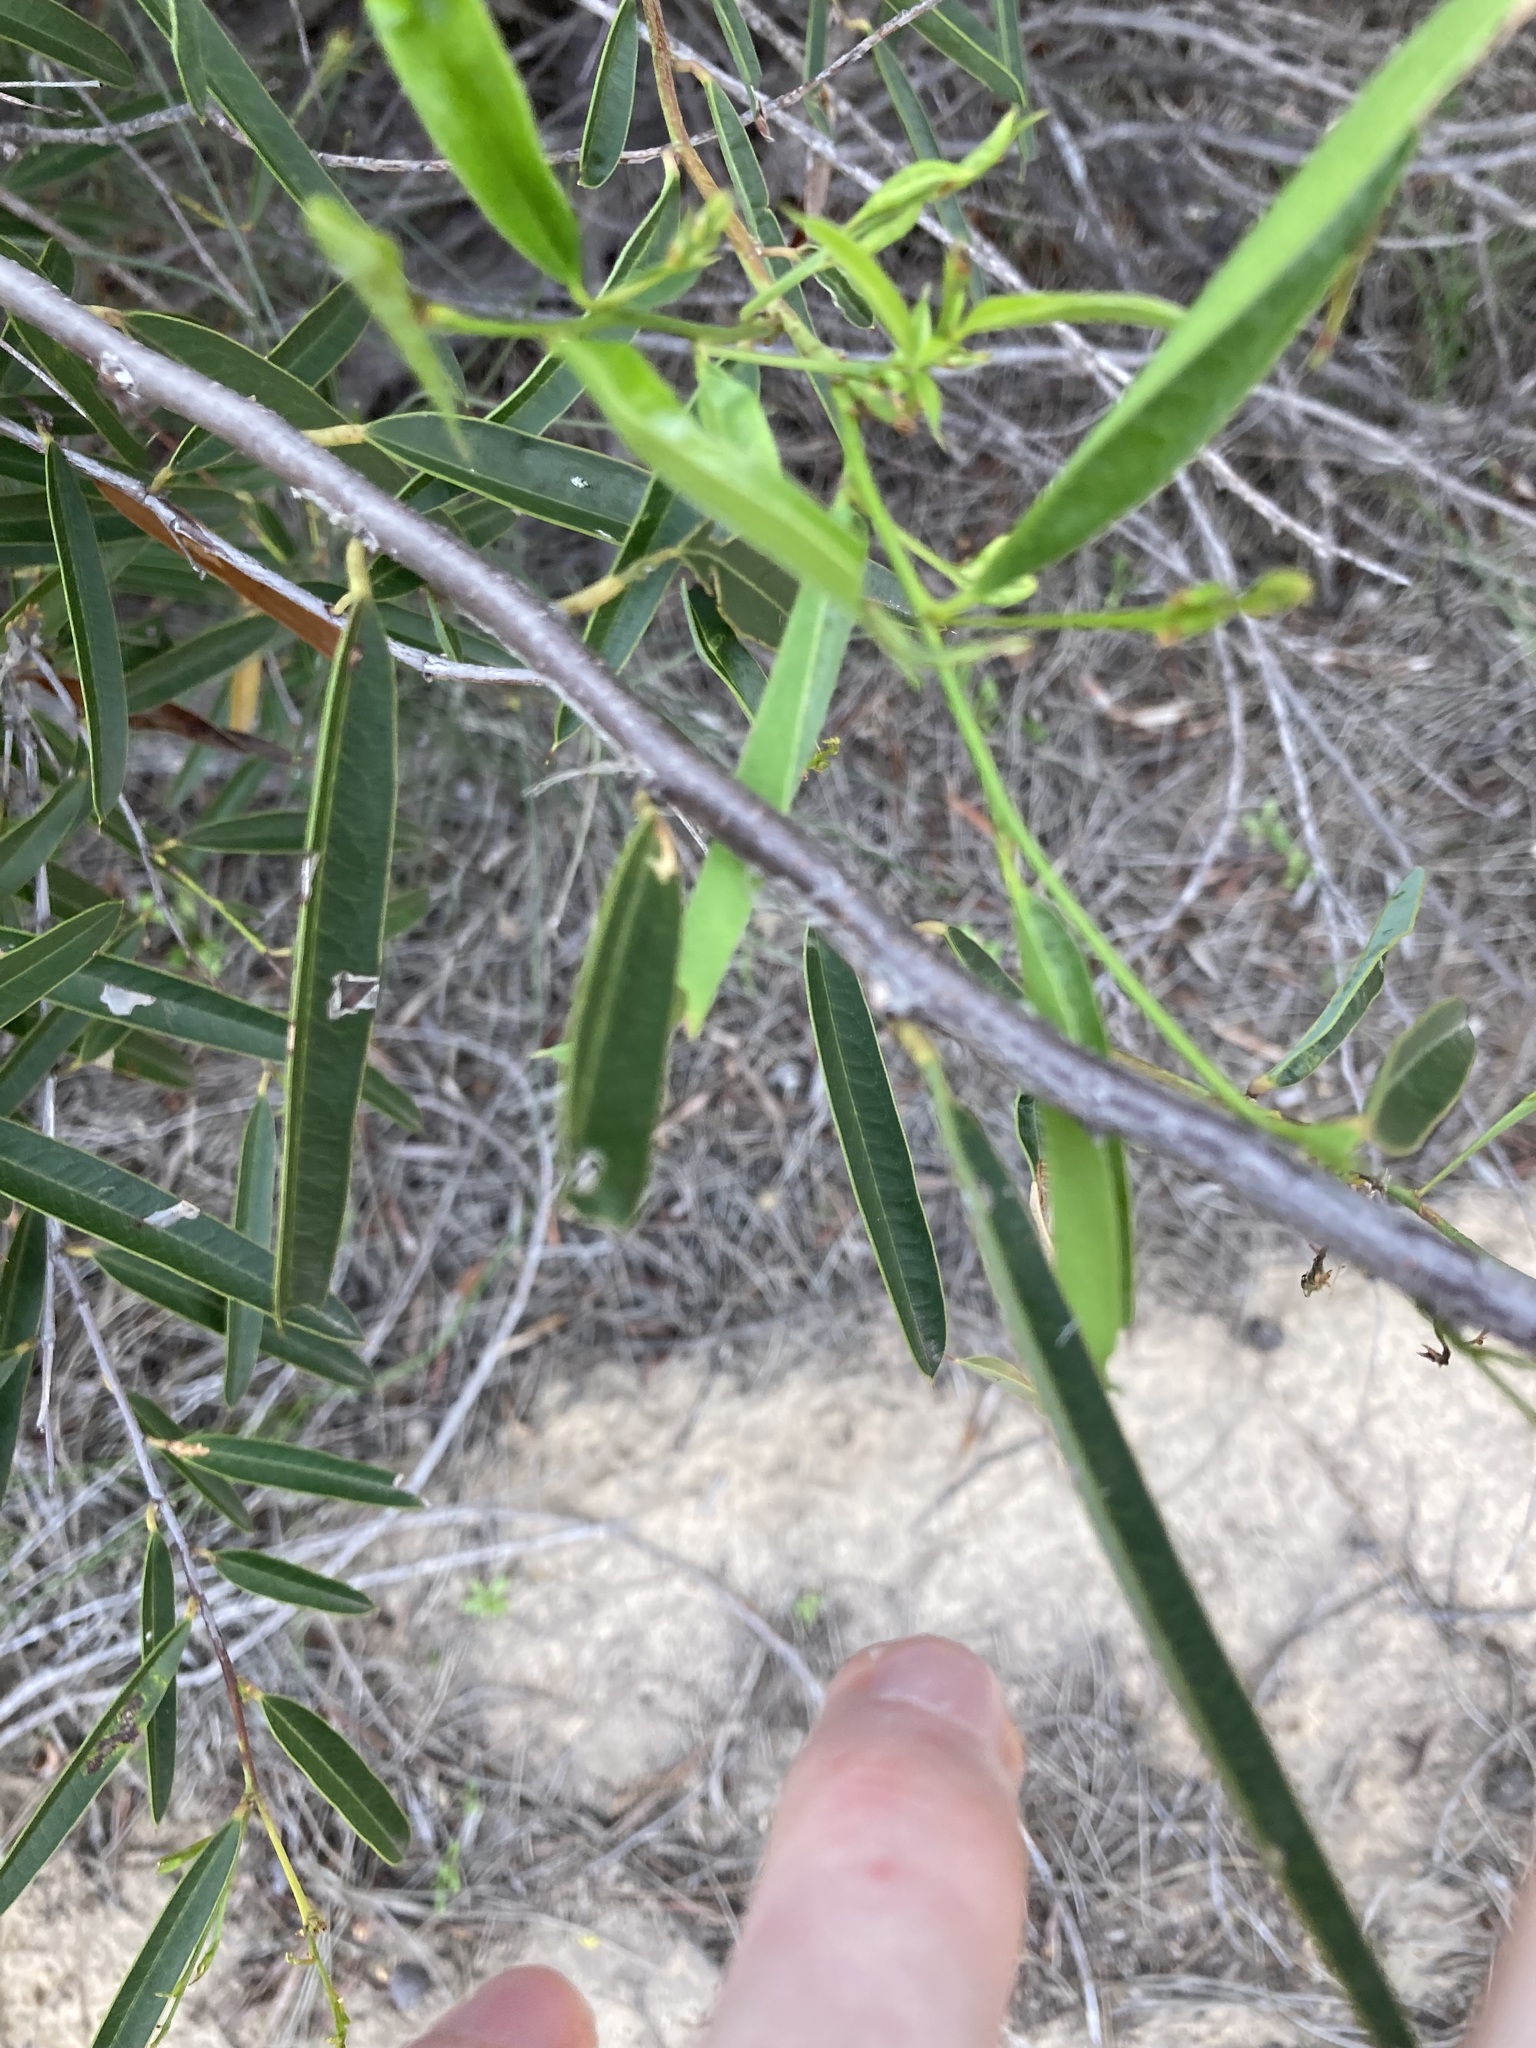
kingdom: Plantae
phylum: Tracheophyta
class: Magnoliopsida
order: Fabales
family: Fabaceae
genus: Labichea
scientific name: Labichea lanceolata
